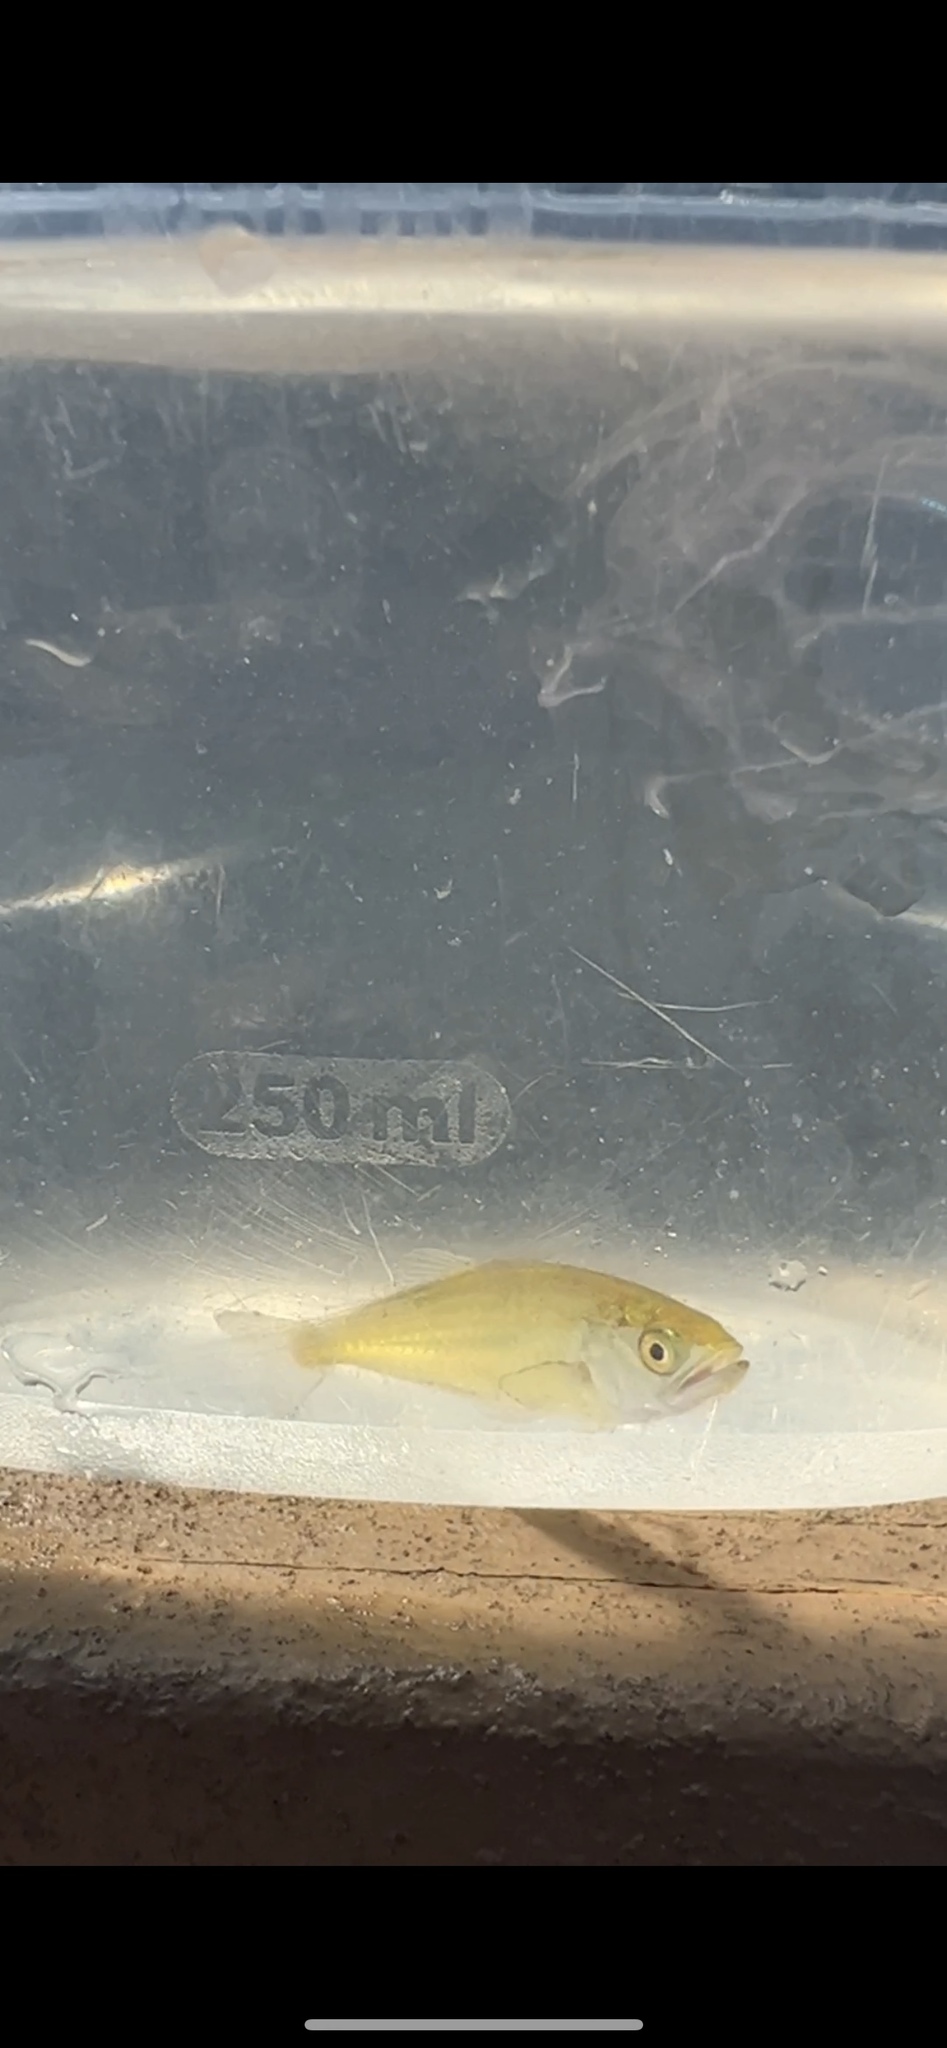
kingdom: Animalia
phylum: Chordata
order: Perciformes
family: Carangidae
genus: Oligoplites
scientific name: Oligoplites saurus
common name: Leatherjacket
